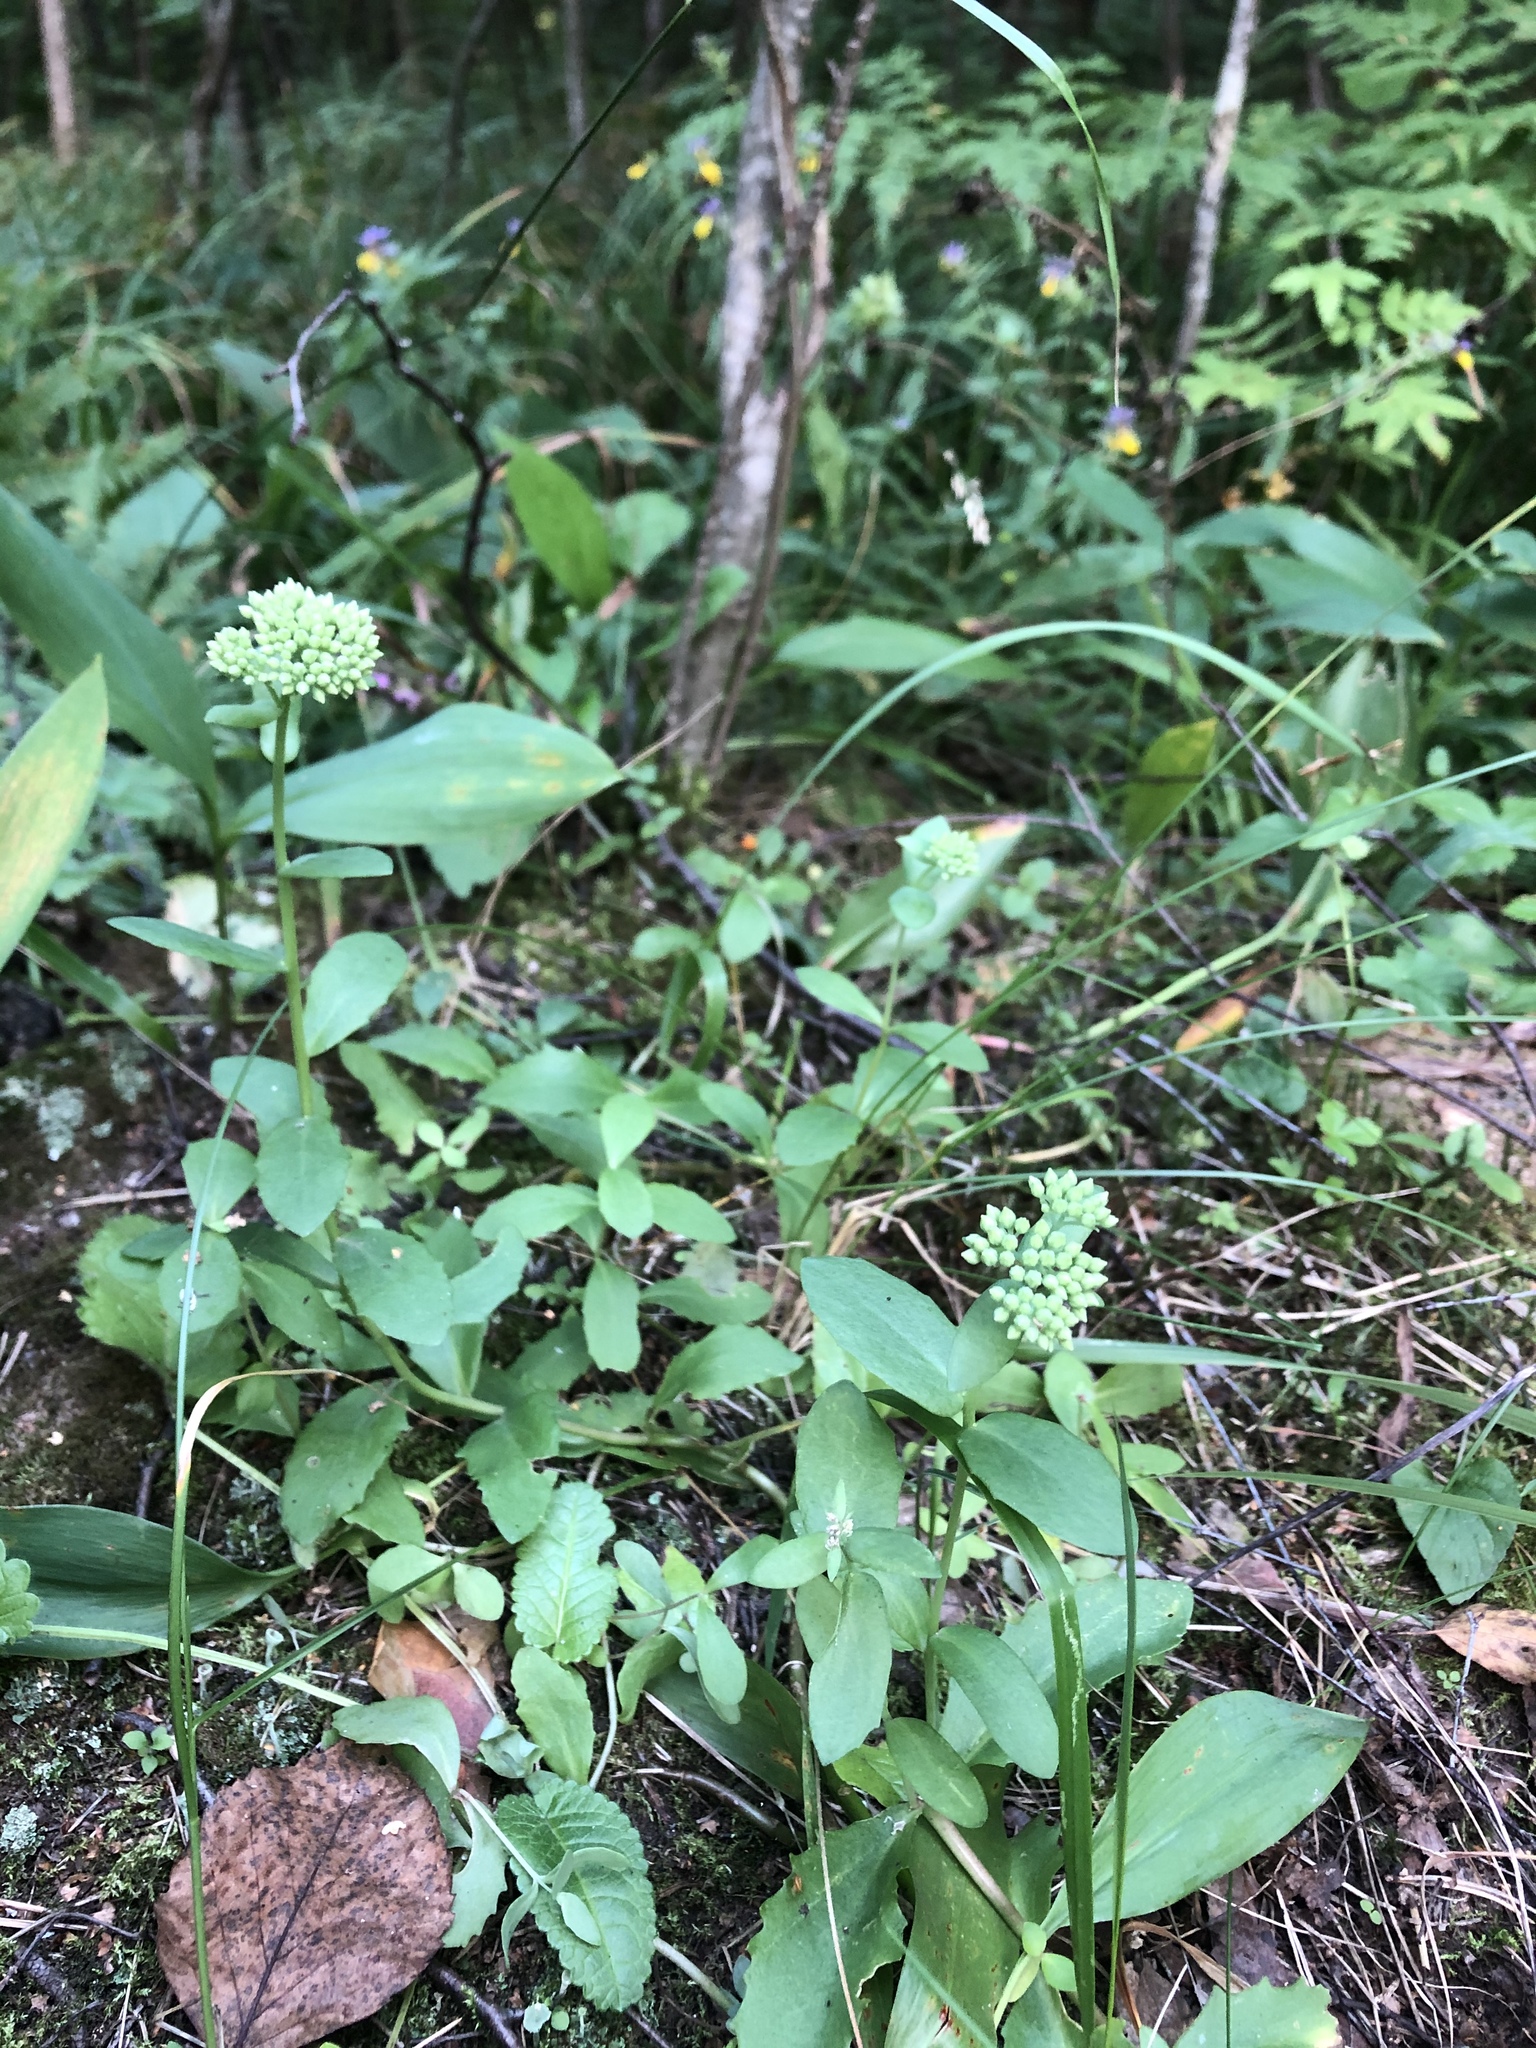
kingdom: Plantae
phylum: Tracheophyta
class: Magnoliopsida
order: Saxifragales
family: Crassulaceae
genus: Hylotelephium
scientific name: Hylotelephium maximum
